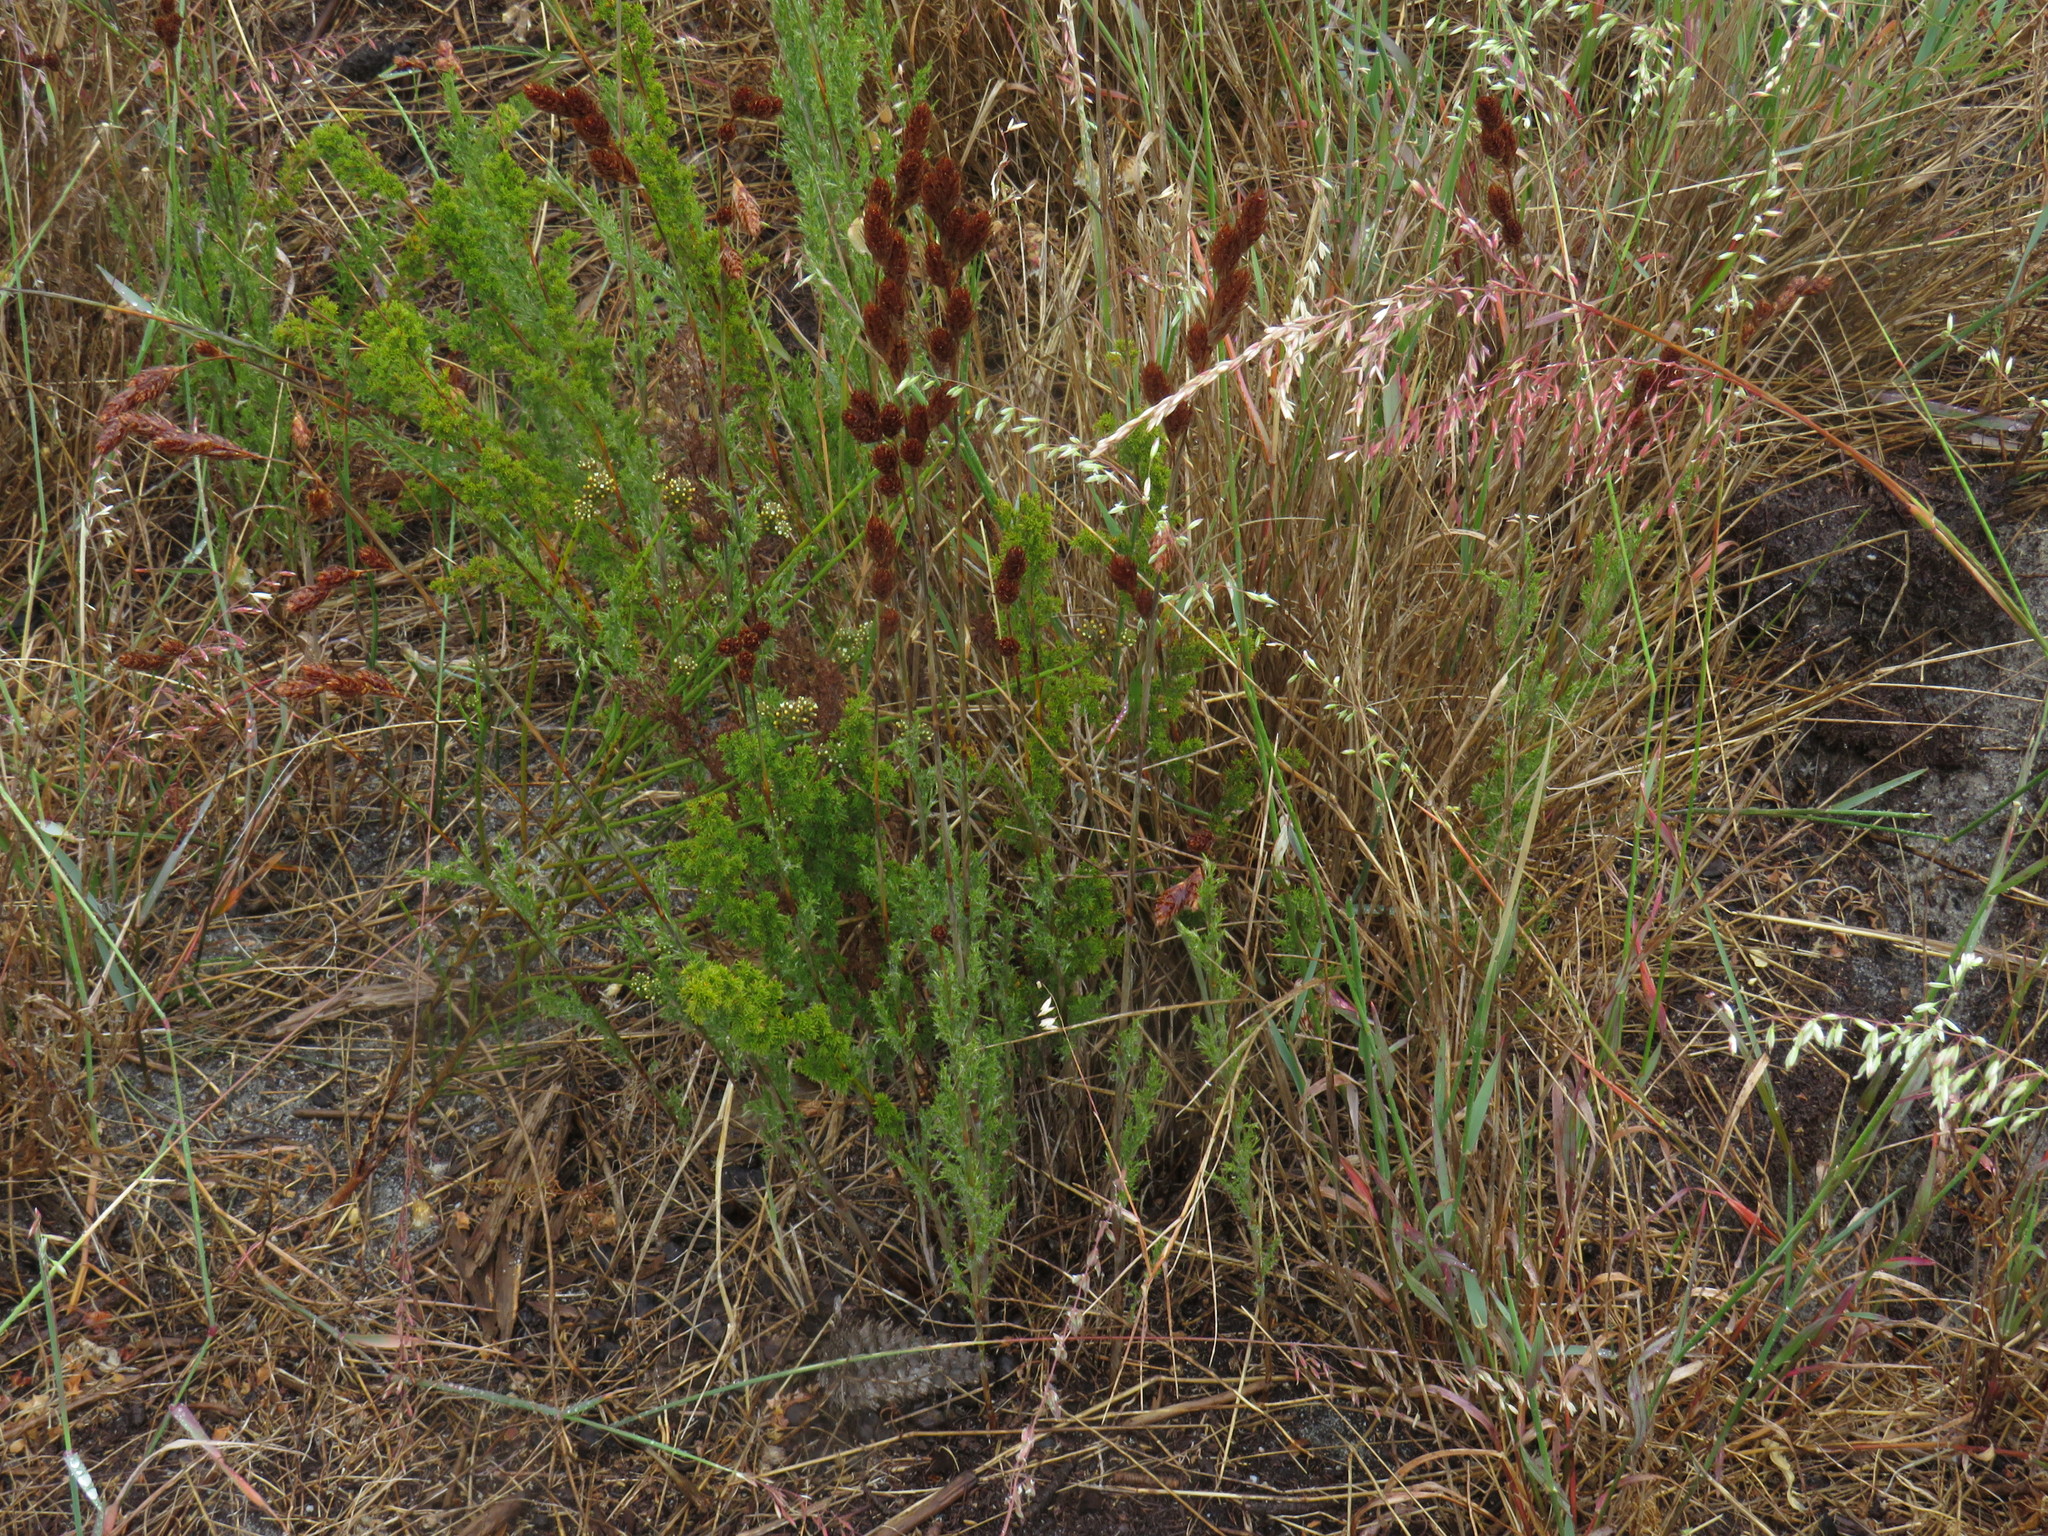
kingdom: Plantae
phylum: Tracheophyta
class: Liliopsida
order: Poales
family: Restionaceae
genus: Thamnochortus
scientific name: Thamnochortus fruticosus
